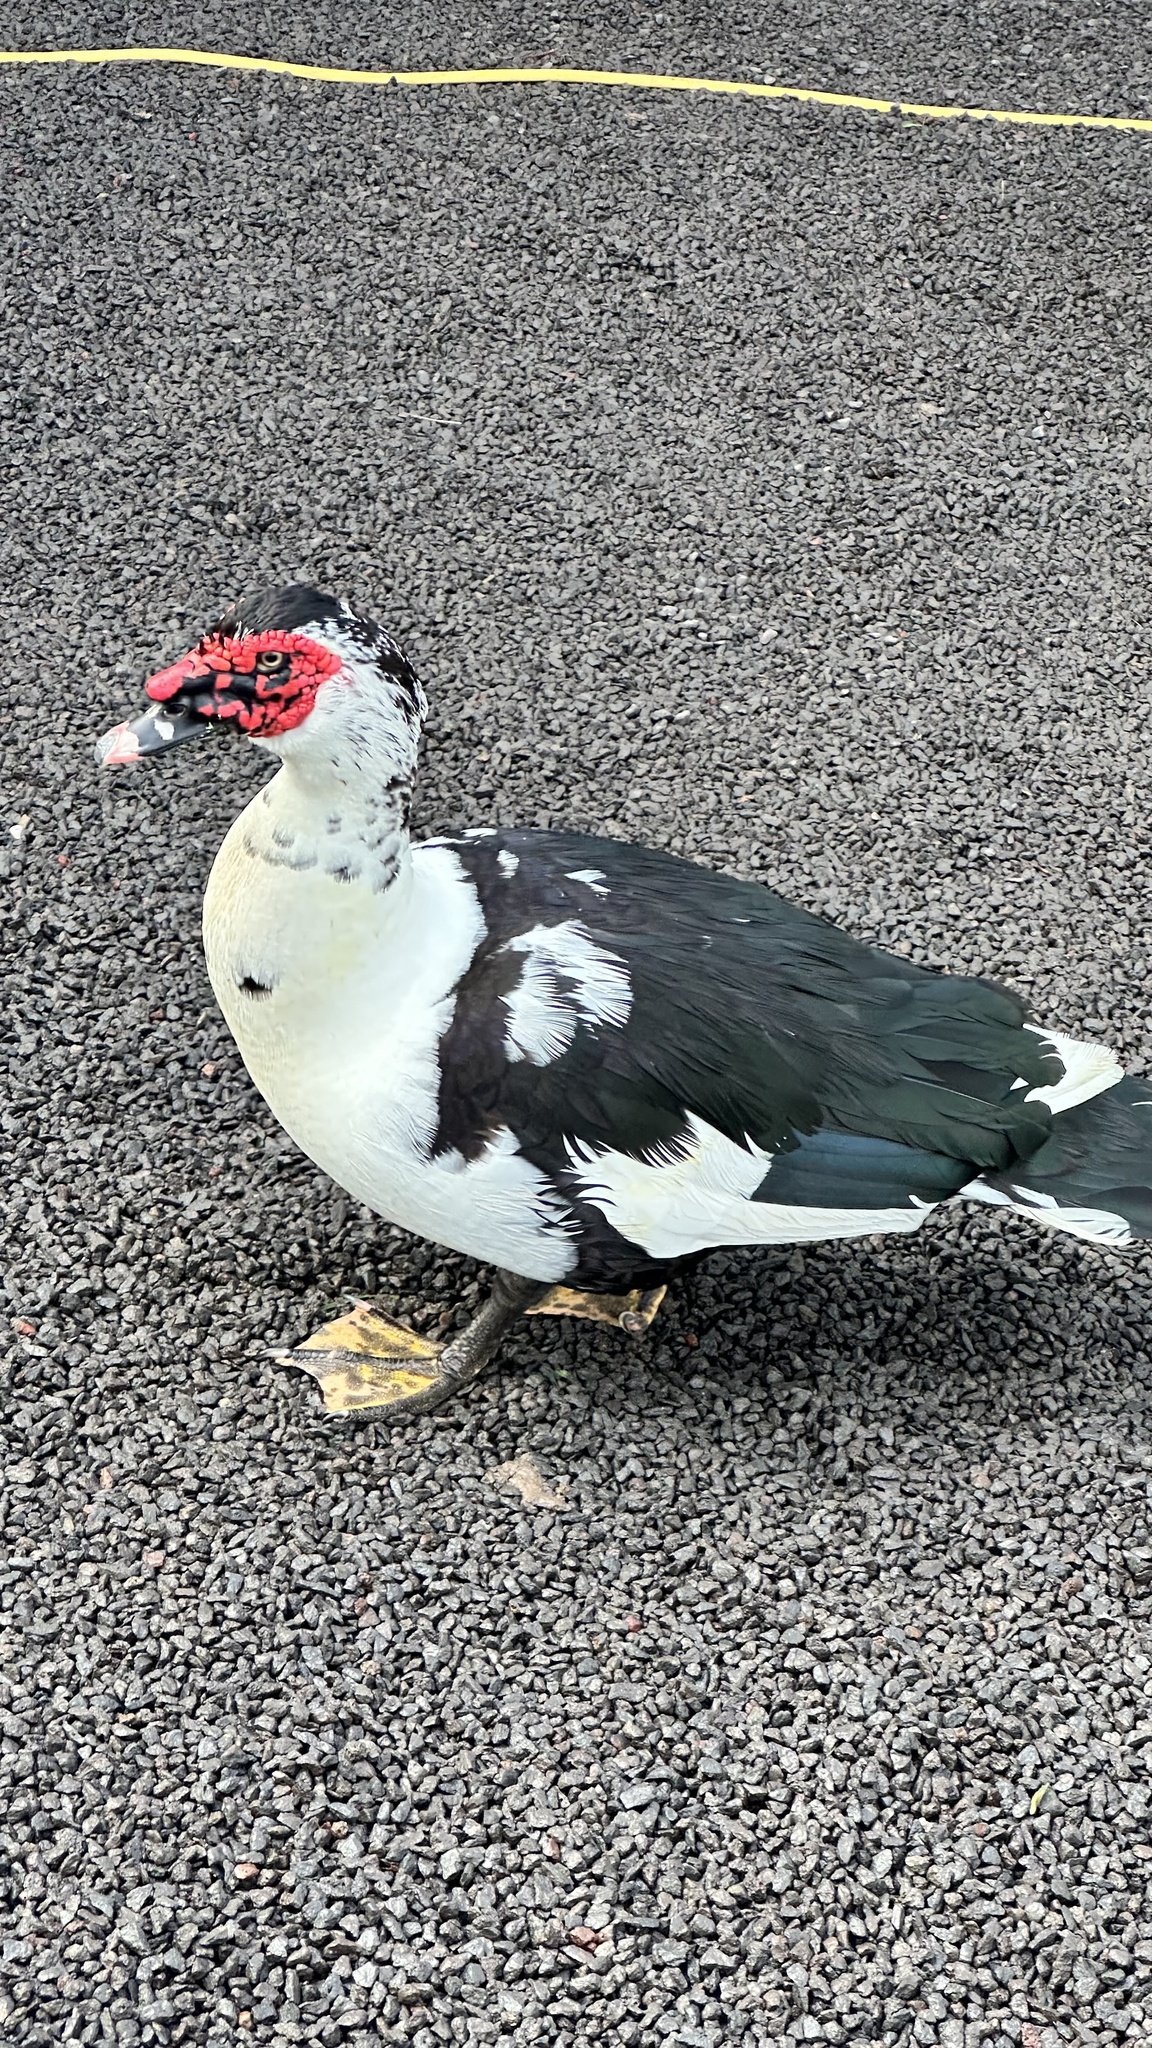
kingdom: Animalia
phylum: Chordata
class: Aves
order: Anseriformes
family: Anatidae
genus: Cairina
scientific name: Cairina moschata
